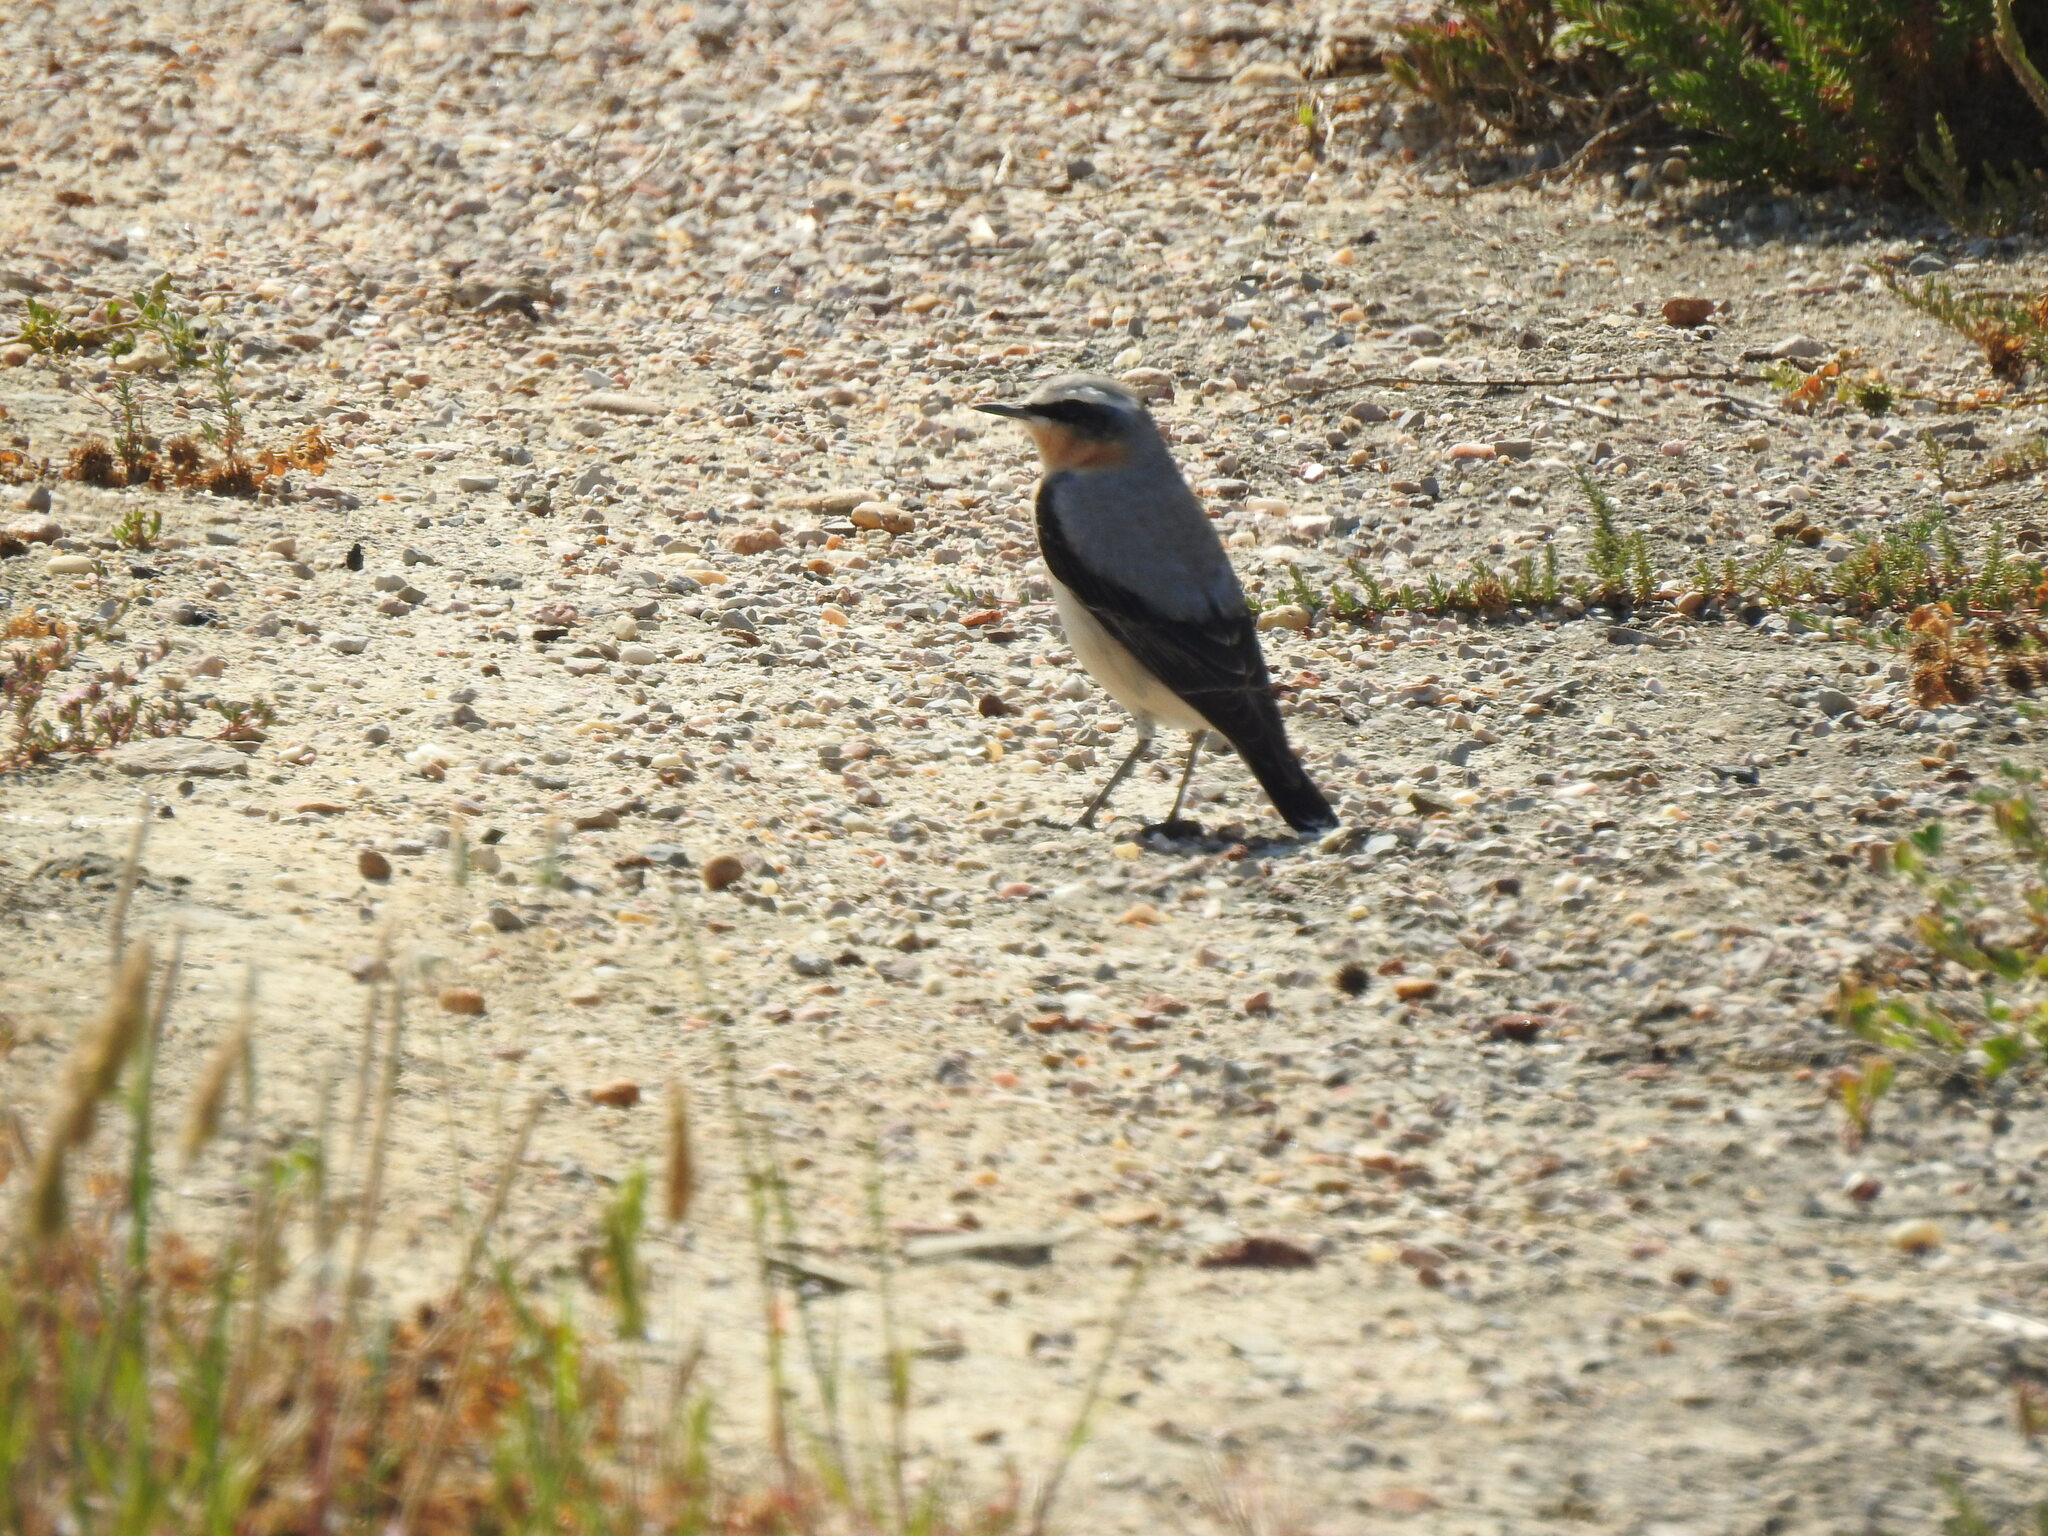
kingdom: Animalia
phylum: Chordata
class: Aves
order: Passeriformes
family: Muscicapidae
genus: Oenanthe
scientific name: Oenanthe oenanthe
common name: Northern wheatear
